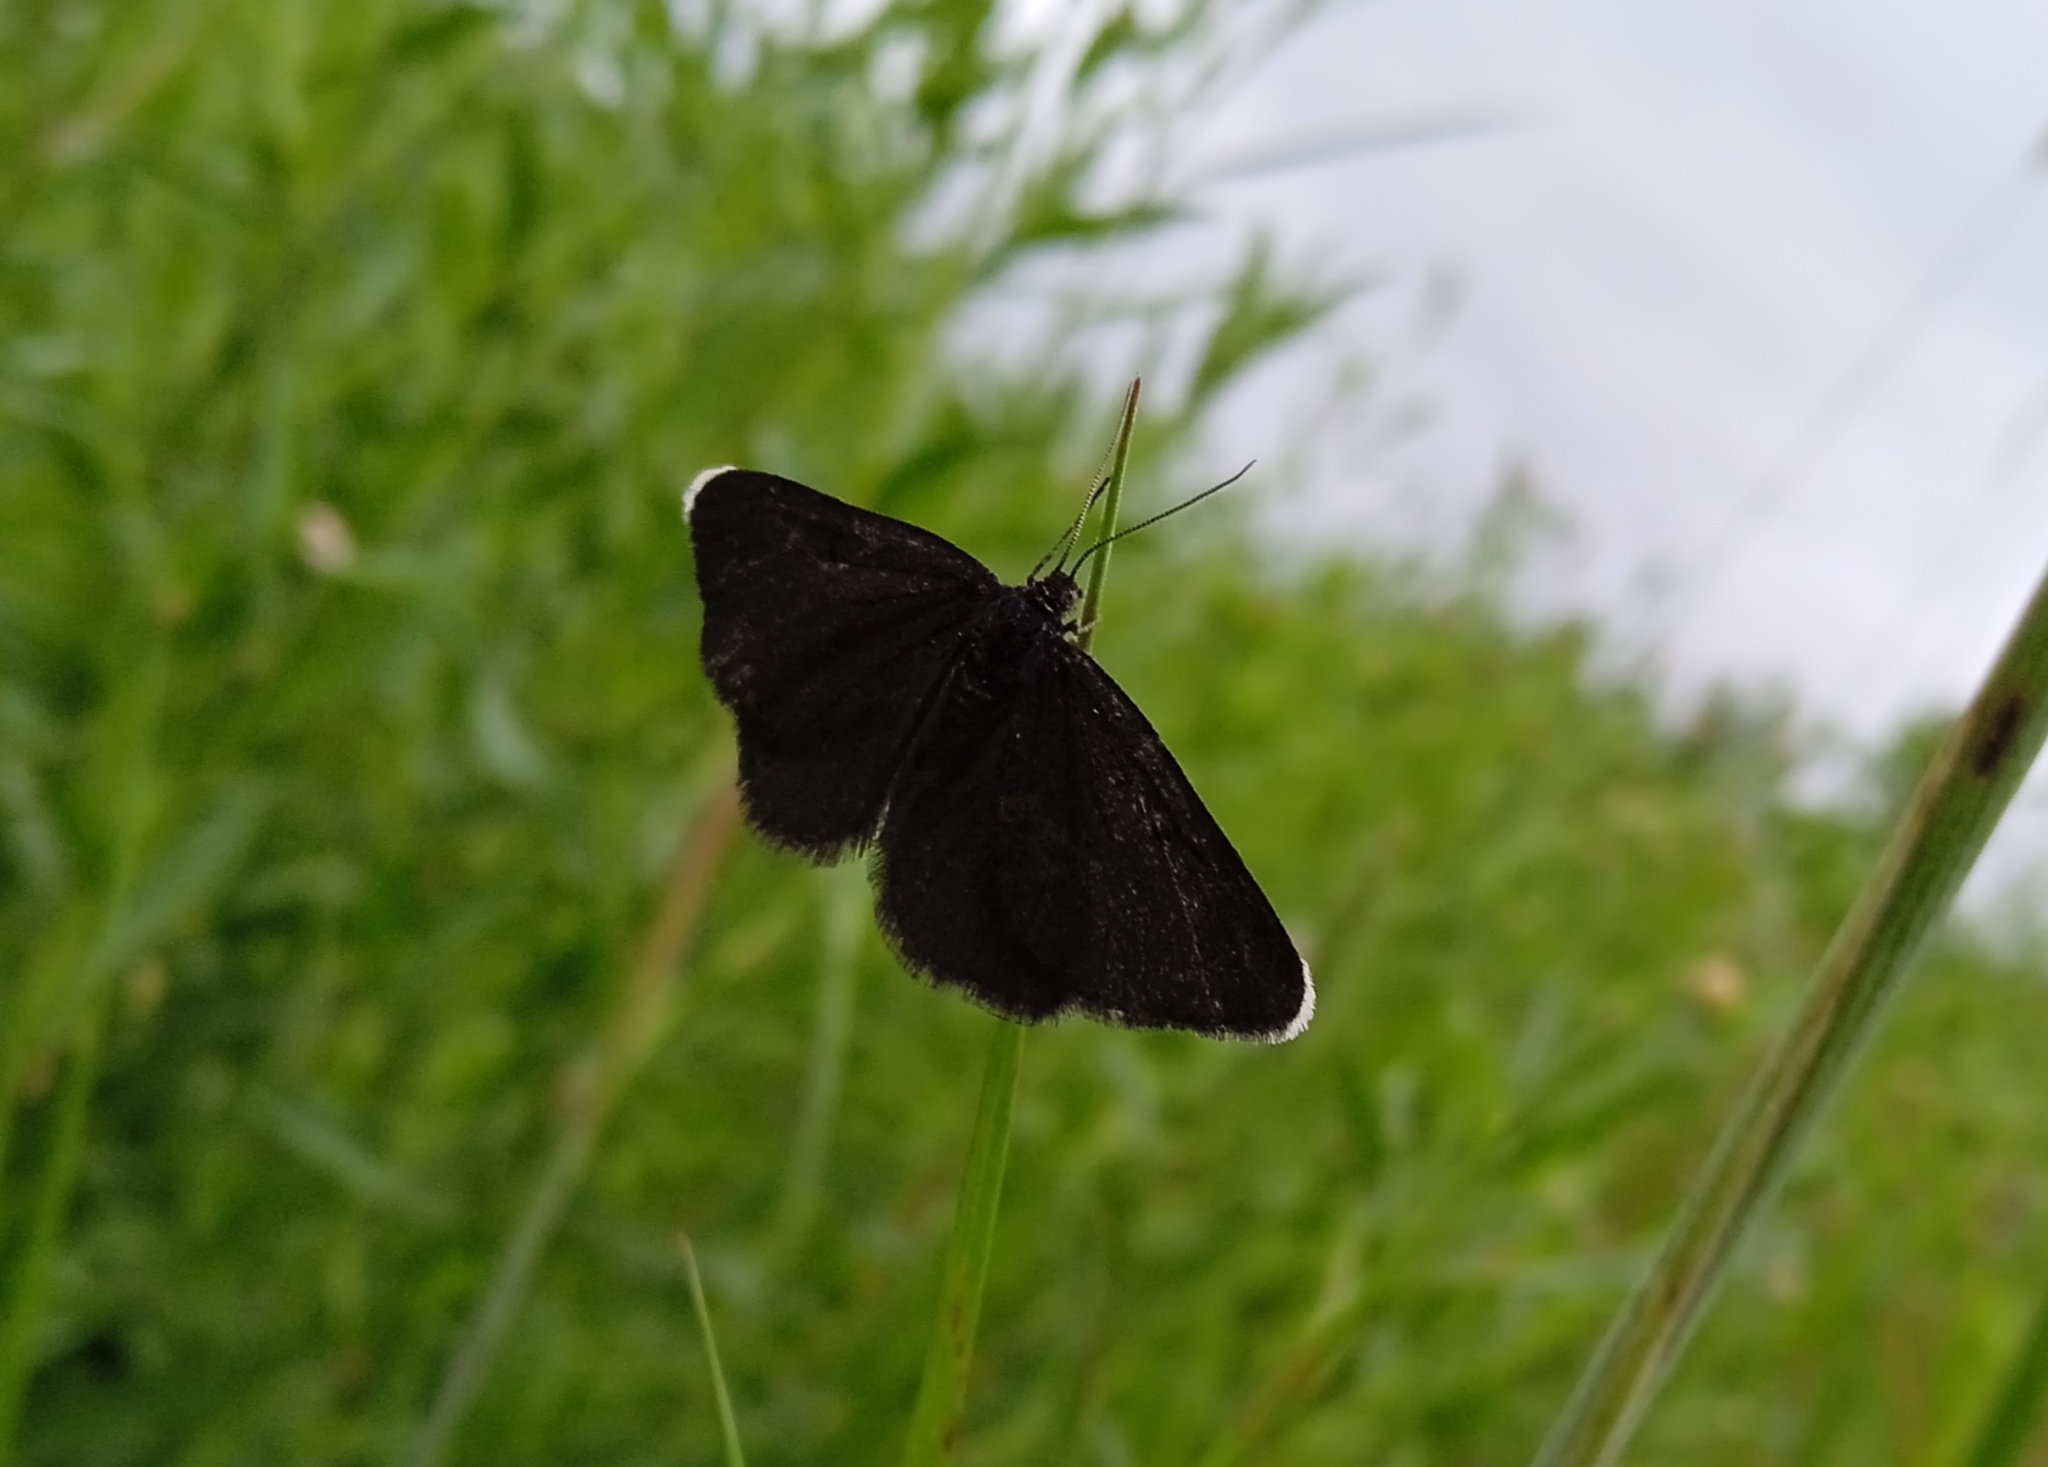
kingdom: Animalia
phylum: Arthropoda
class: Insecta
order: Lepidoptera
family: Geometridae
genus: Odezia
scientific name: Odezia atrata
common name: Chimney sweeper
